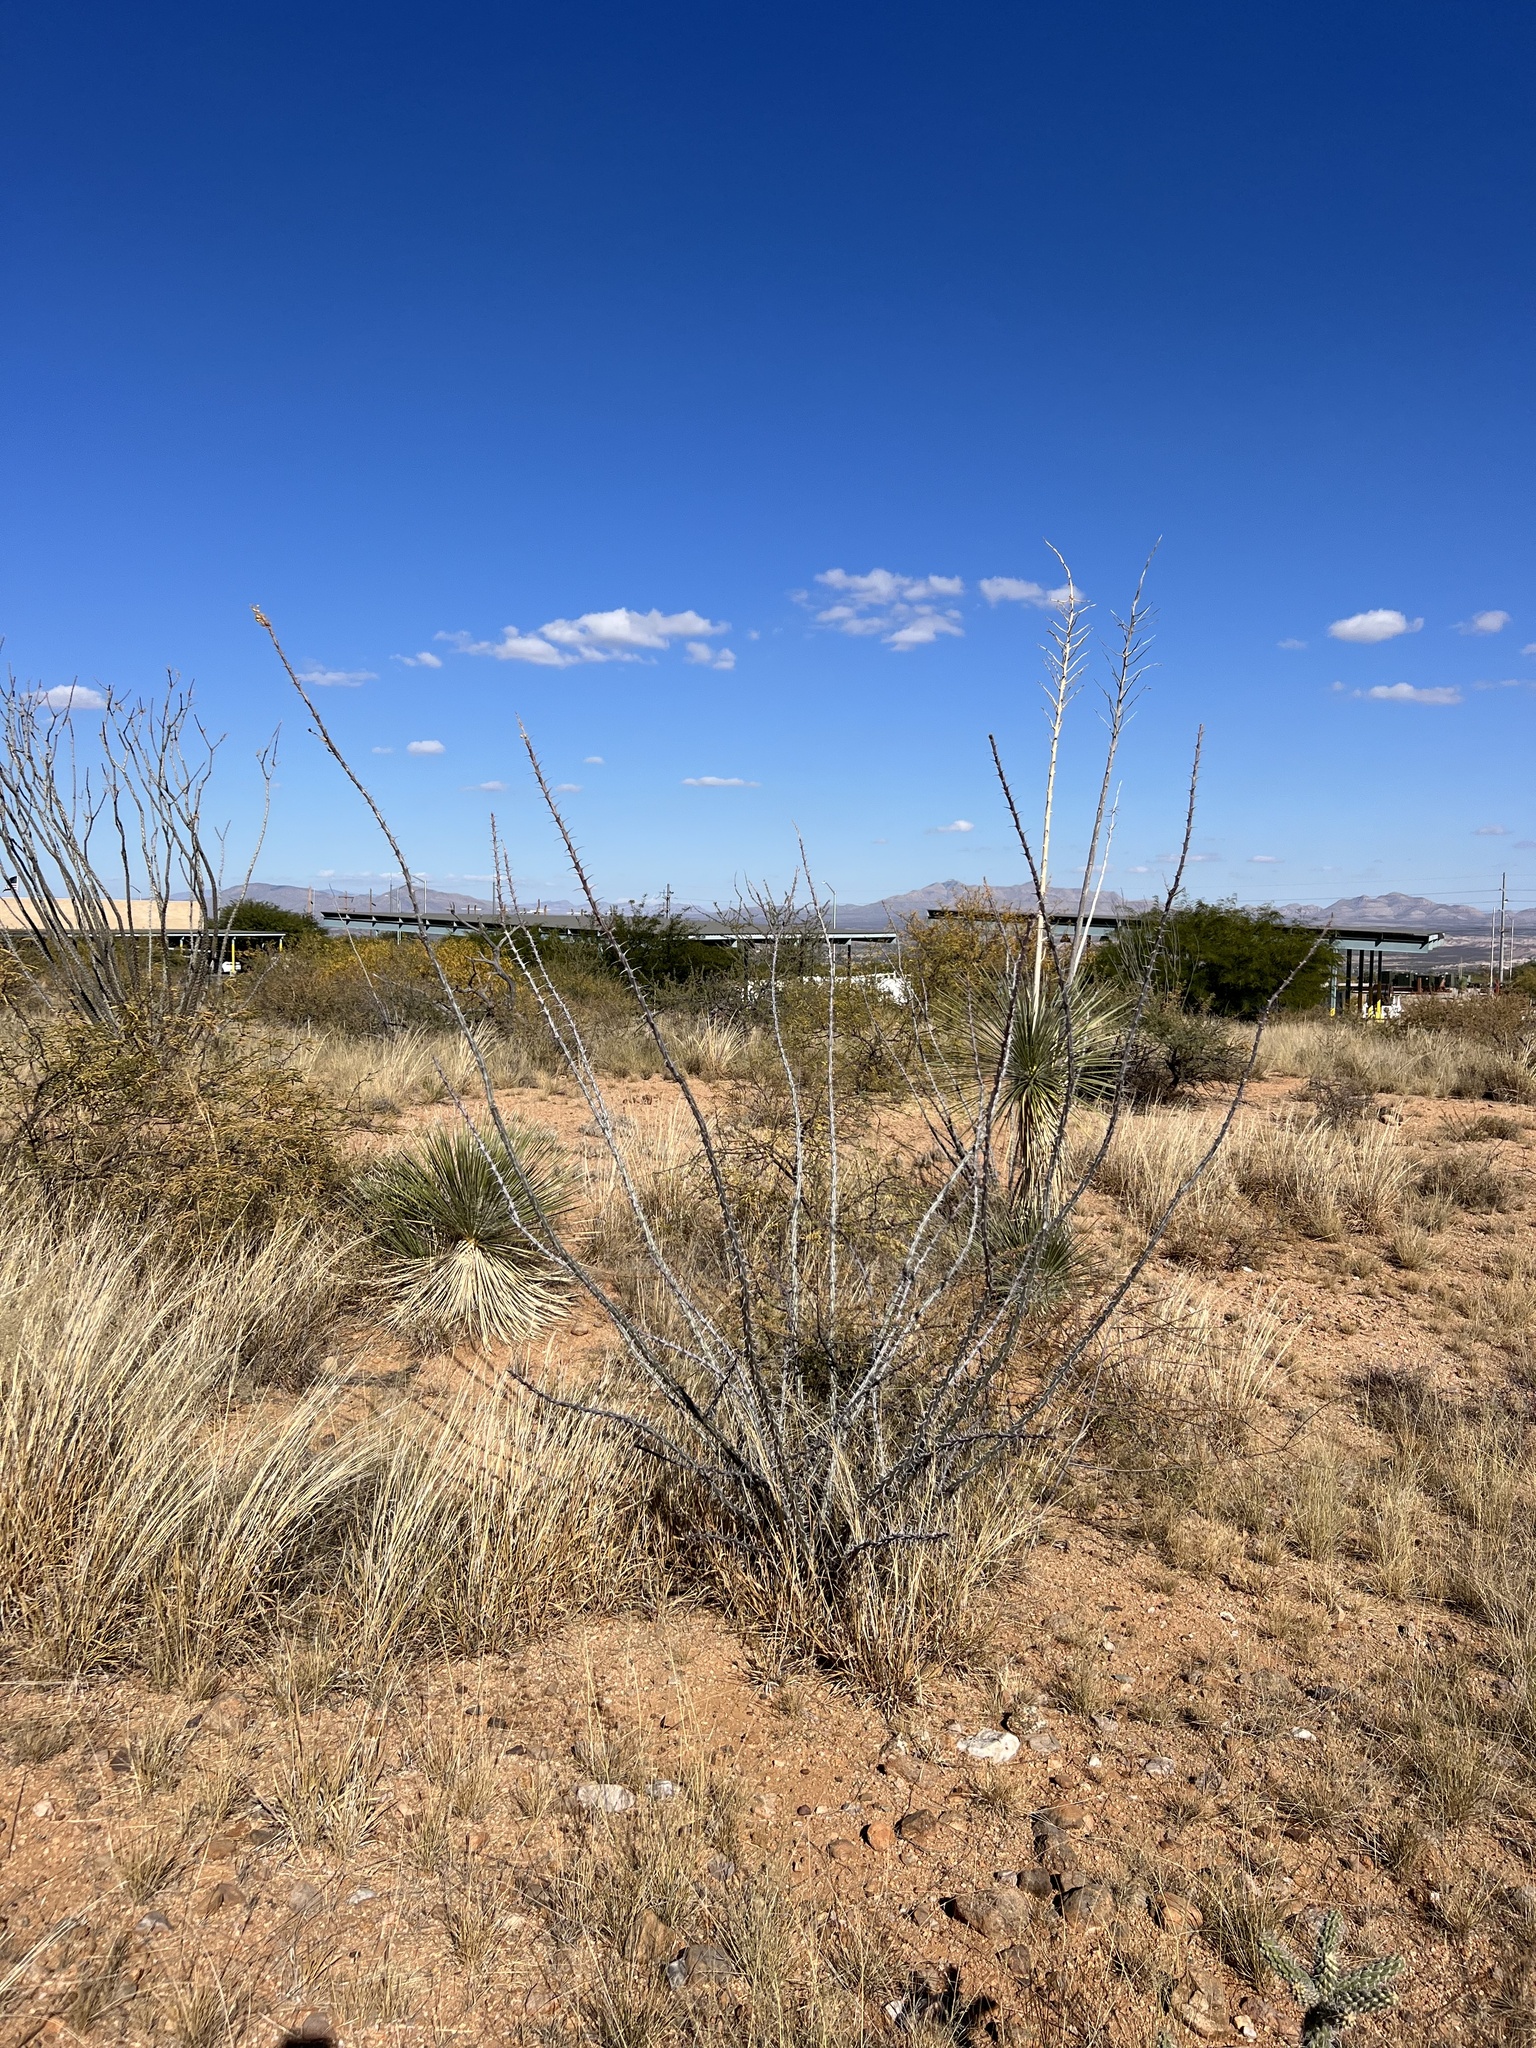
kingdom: Plantae
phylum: Tracheophyta
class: Magnoliopsida
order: Ericales
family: Fouquieriaceae
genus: Fouquieria
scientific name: Fouquieria splendens
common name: Vine-cactus
